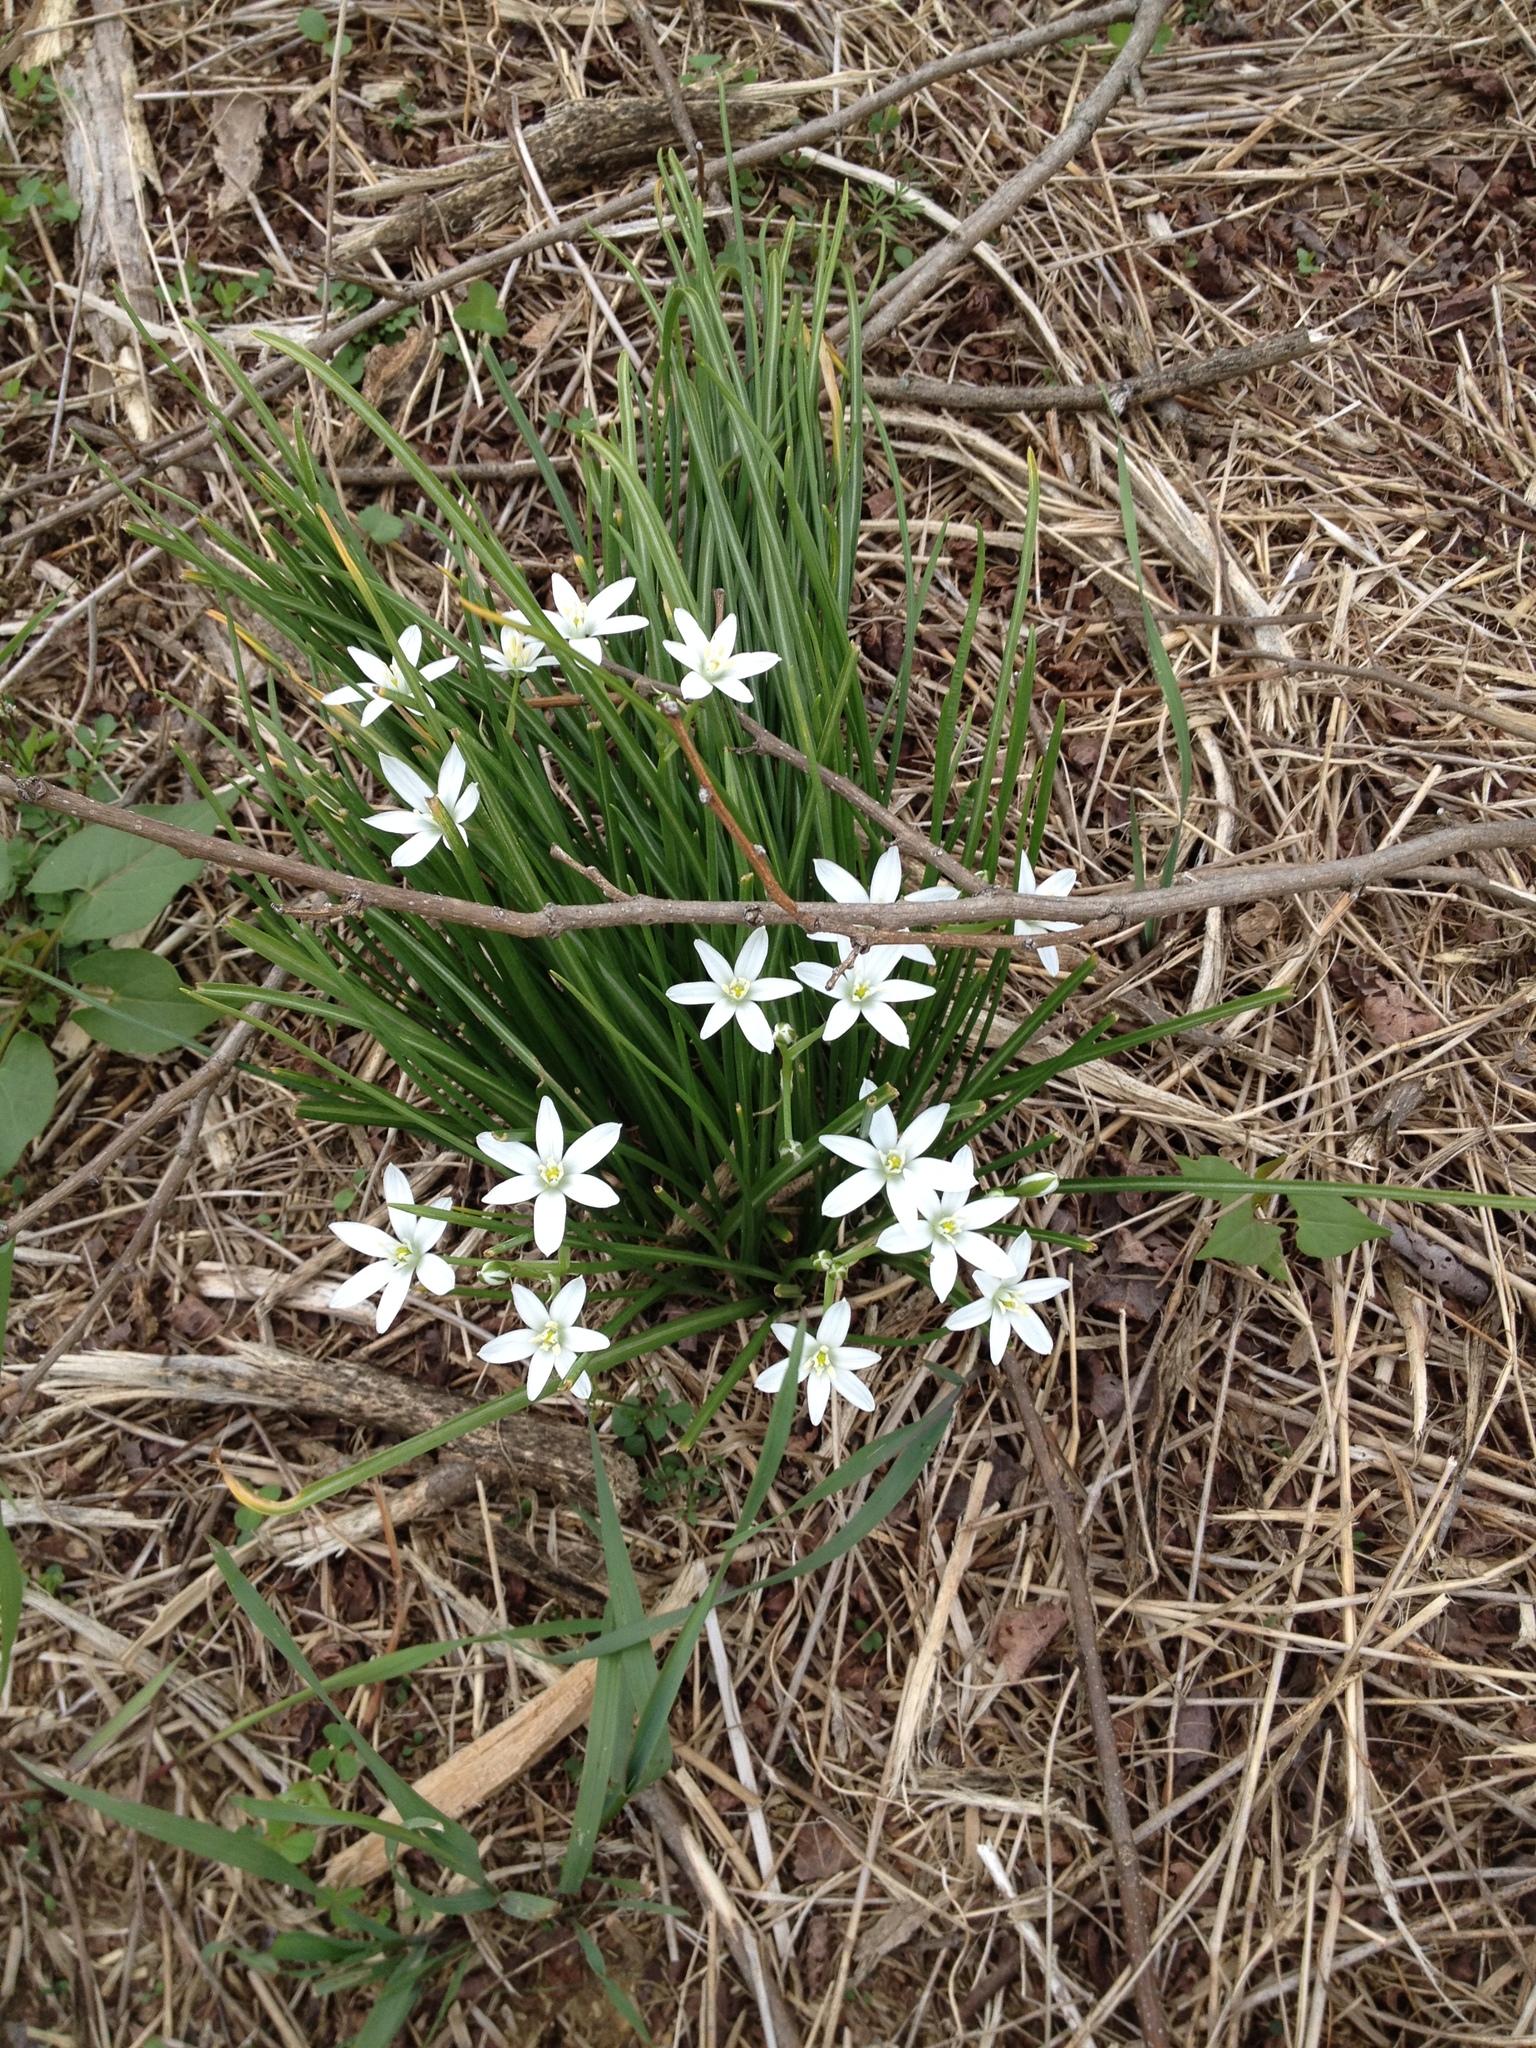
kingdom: Plantae
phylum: Tracheophyta
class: Liliopsida
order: Asparagales
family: Asparagaceae
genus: Ornithogalum
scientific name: Ornithogalum umbellatum
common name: Garden star-of-bethlehem
